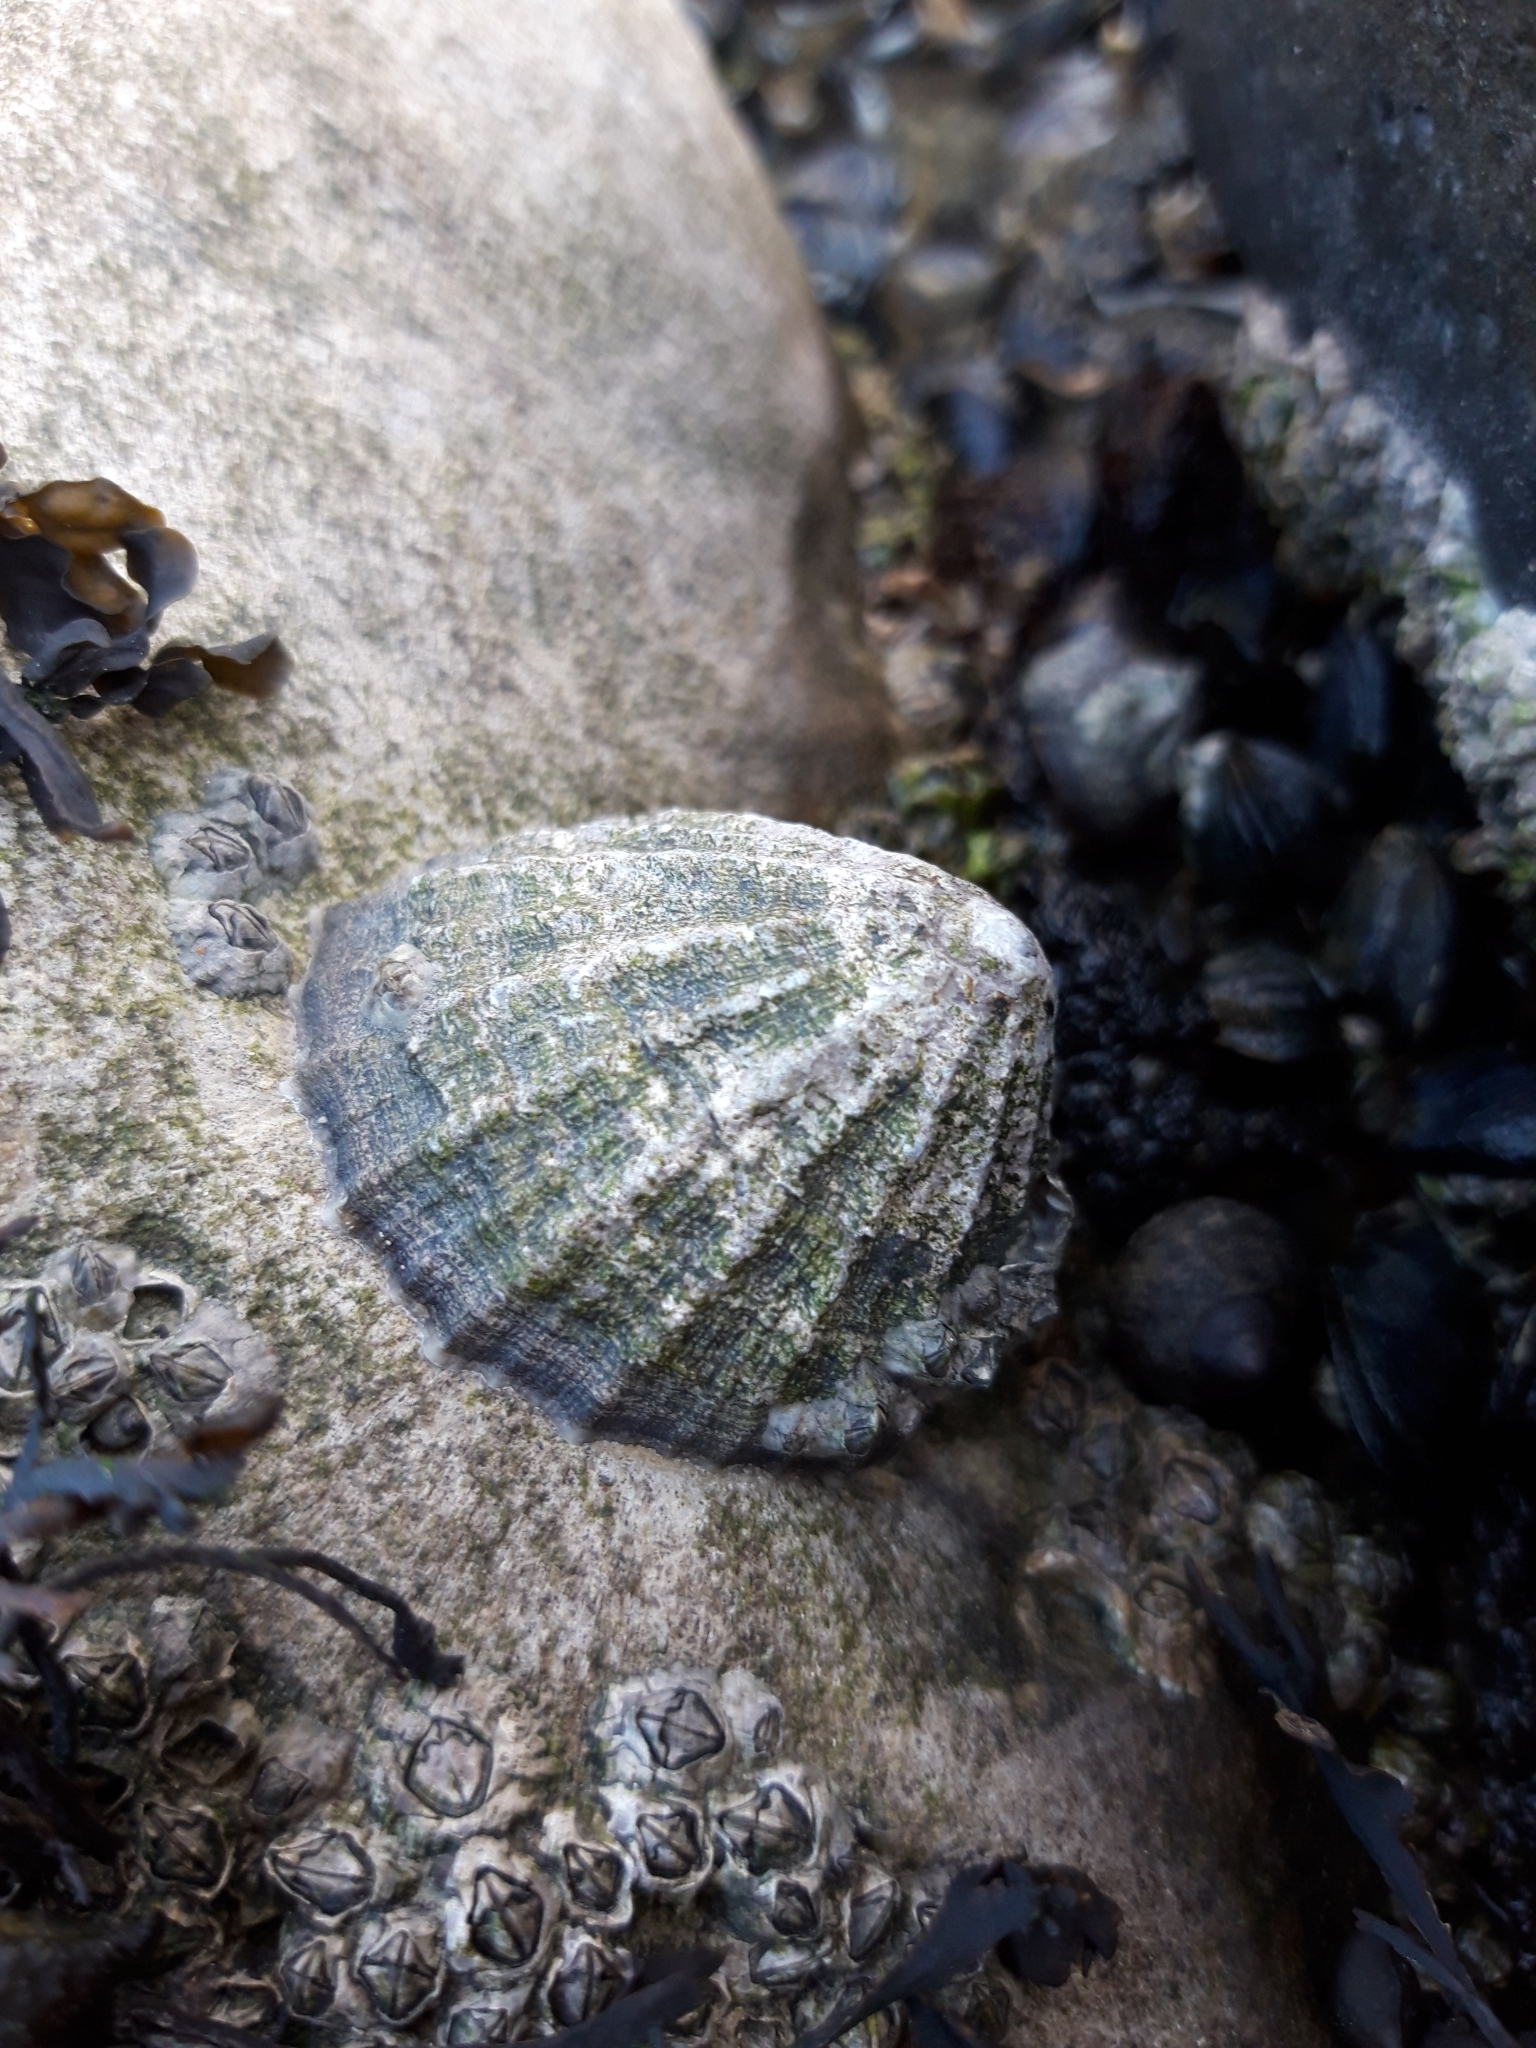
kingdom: Animalia
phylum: Mollusca
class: Gastropoda
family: Patellidae
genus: Patella
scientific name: Patella vulgata
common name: Common limpet
